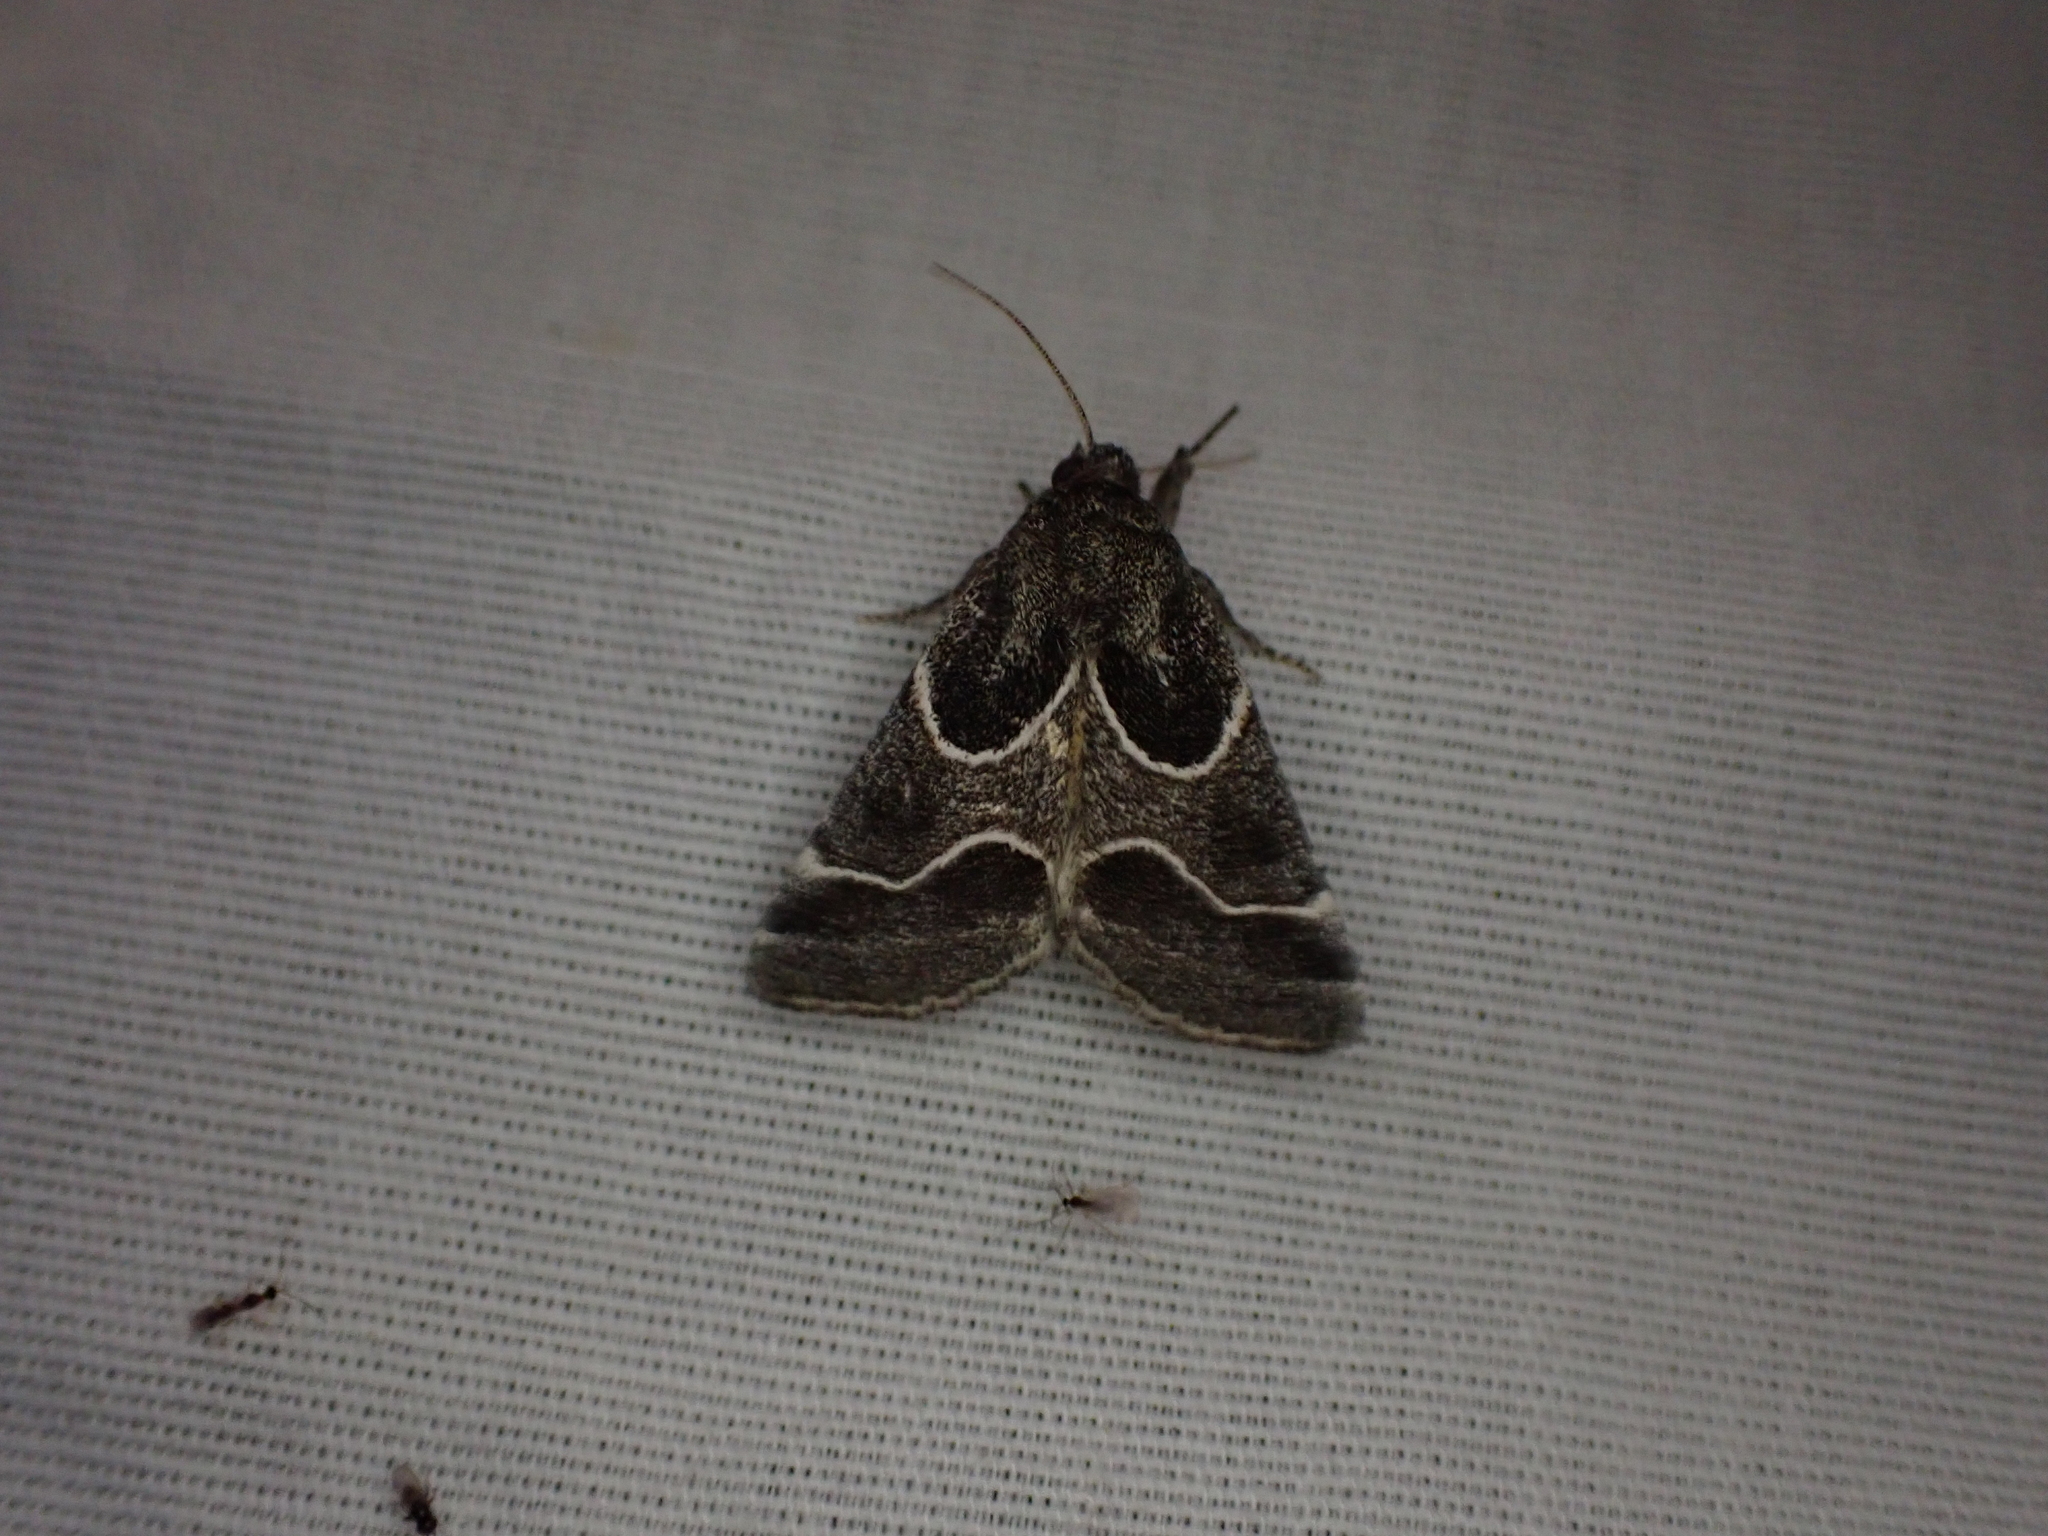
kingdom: Animalia
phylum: Arthropoda
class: Insecta
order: Lepidoptera
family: Noctuidae
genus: Schinia
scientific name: Schinia rivulosa
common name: Scarce meal-moth
